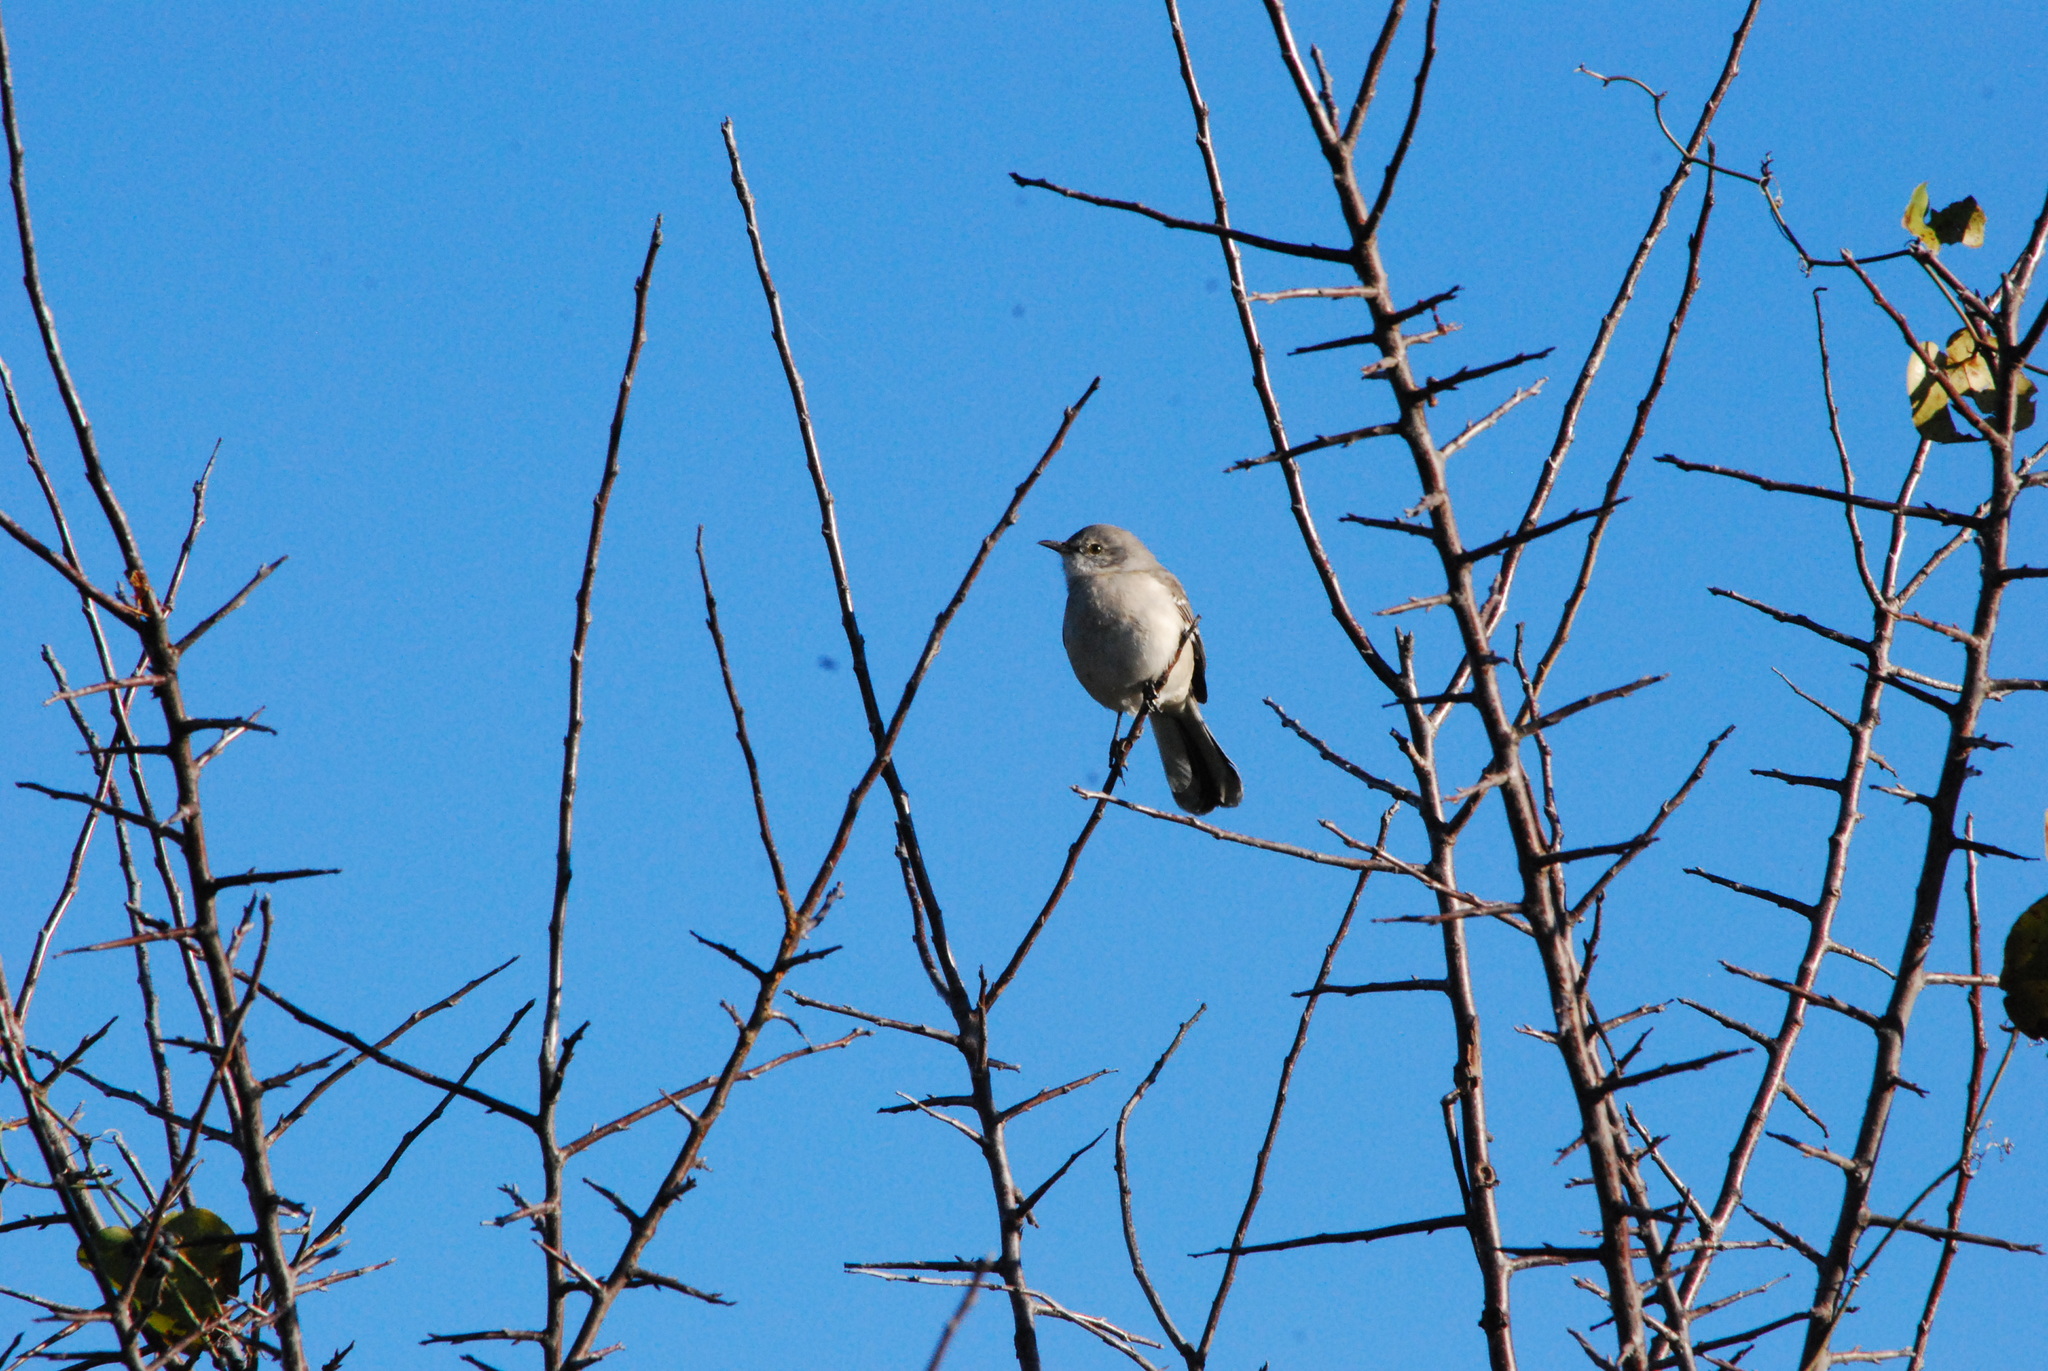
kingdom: Animalia
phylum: Chordata
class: Aves
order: Passeriformes
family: Mimidae
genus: Mimus
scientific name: Mimus polyglottos
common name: Northern mockingbird
